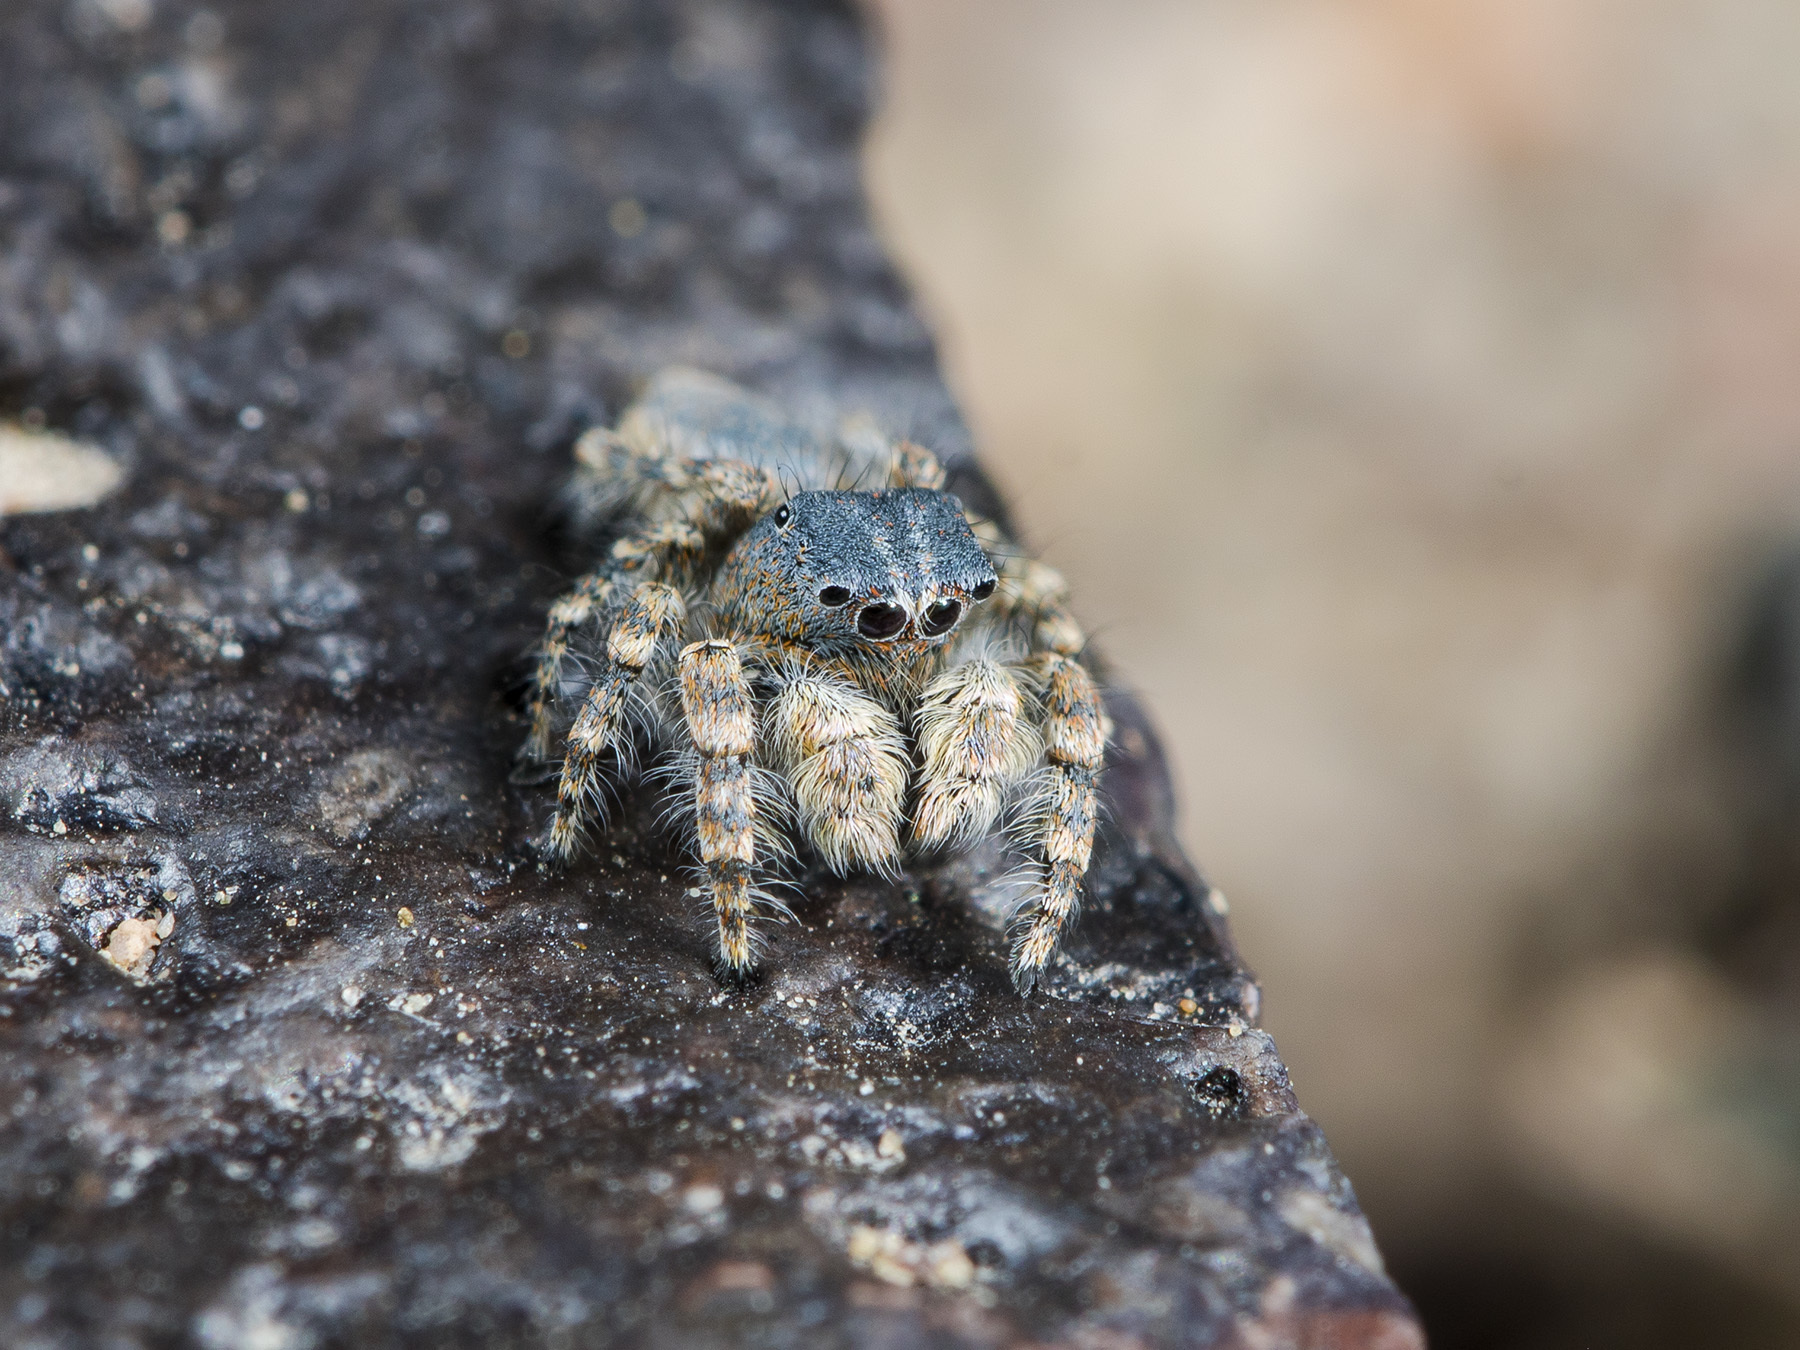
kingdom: Animalia
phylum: Arthropoda
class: Arachnida
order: Araneae
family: Salticidae
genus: Yllenus
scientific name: Yllenus zyuzini
